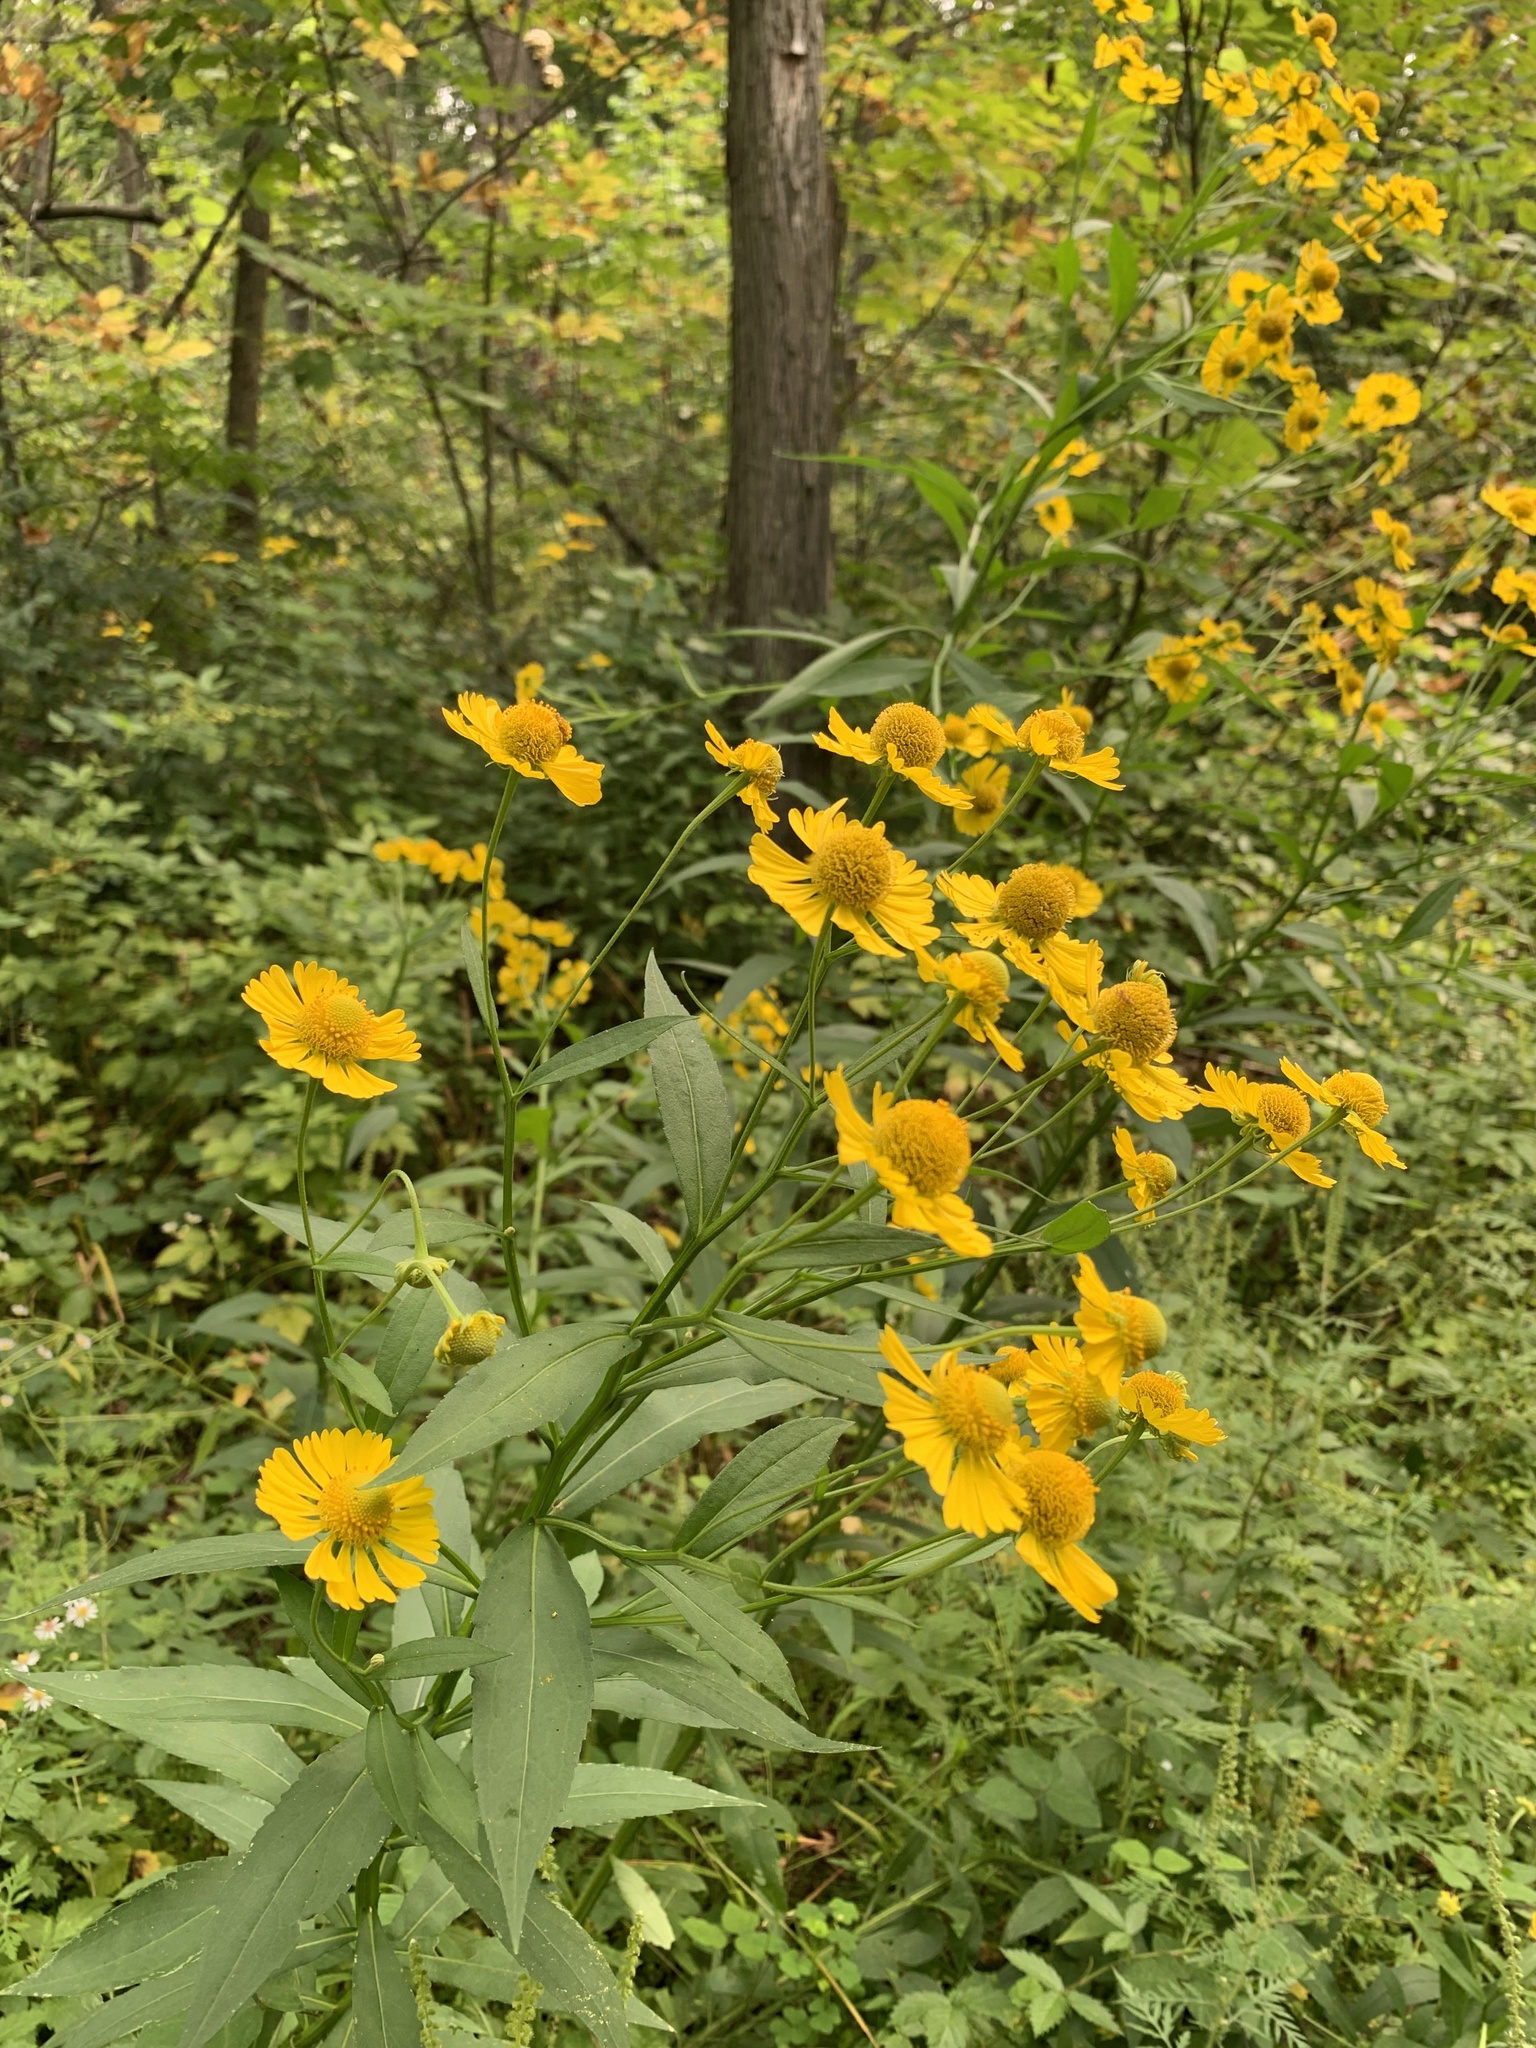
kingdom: Plantae
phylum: Tracheophyta
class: Magnoliopsida
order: Asterales
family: Asteraceae
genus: Helenium
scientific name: Helenium autumnale
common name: Sneezeweed
